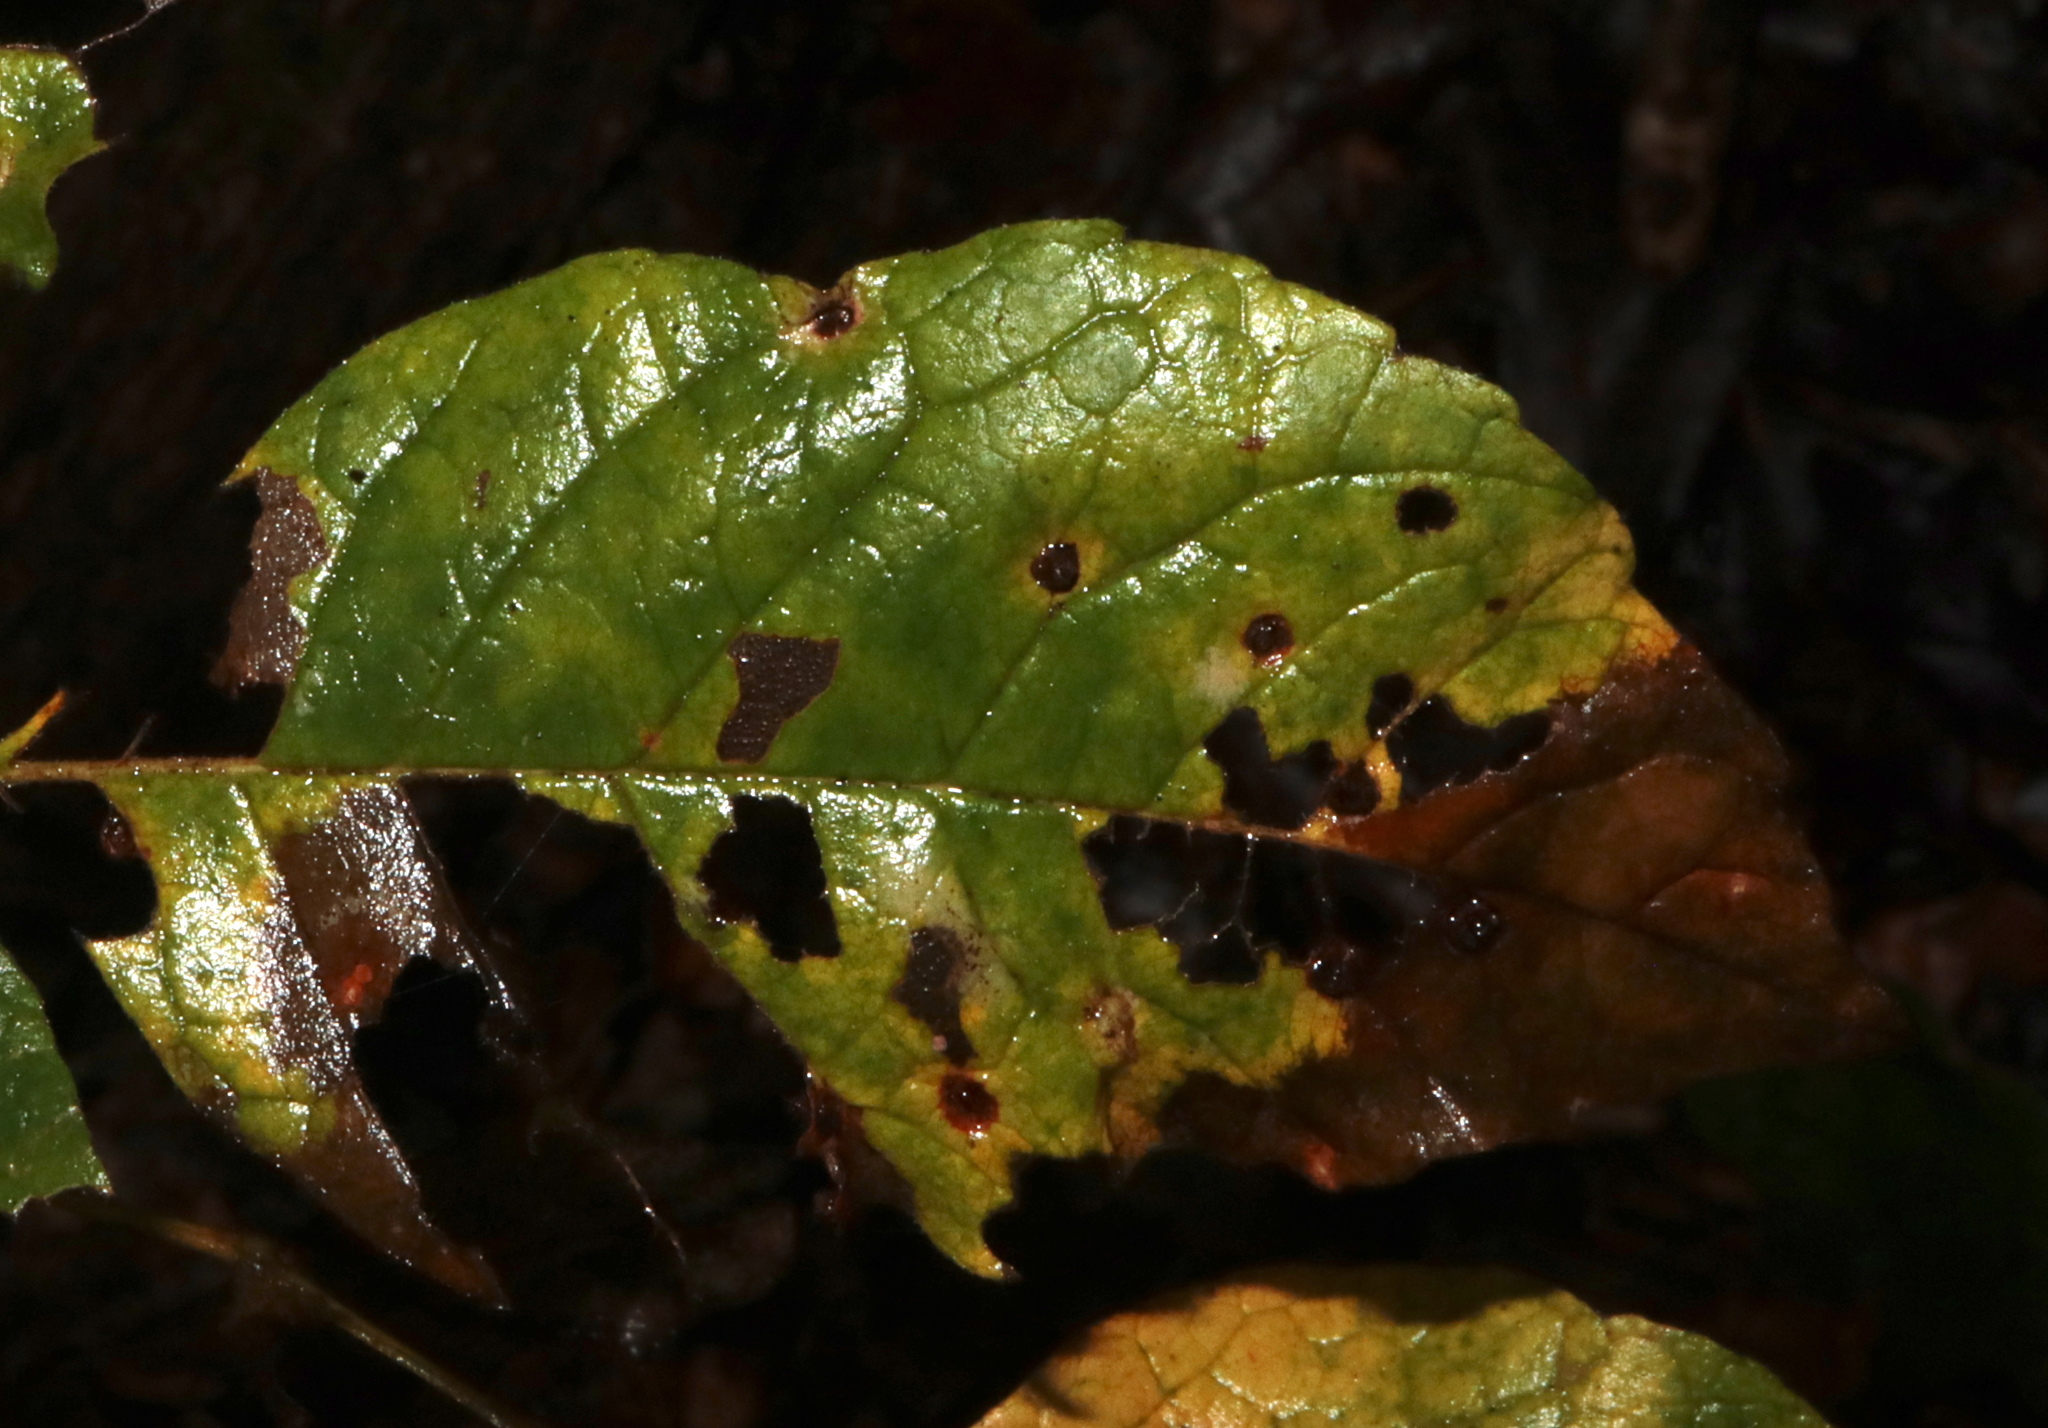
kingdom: Animalia
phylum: Arthropoda
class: Arachnida
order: Trombidiformes
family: Eriophyidae
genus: Aceria
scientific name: Aceria fraxinicola
